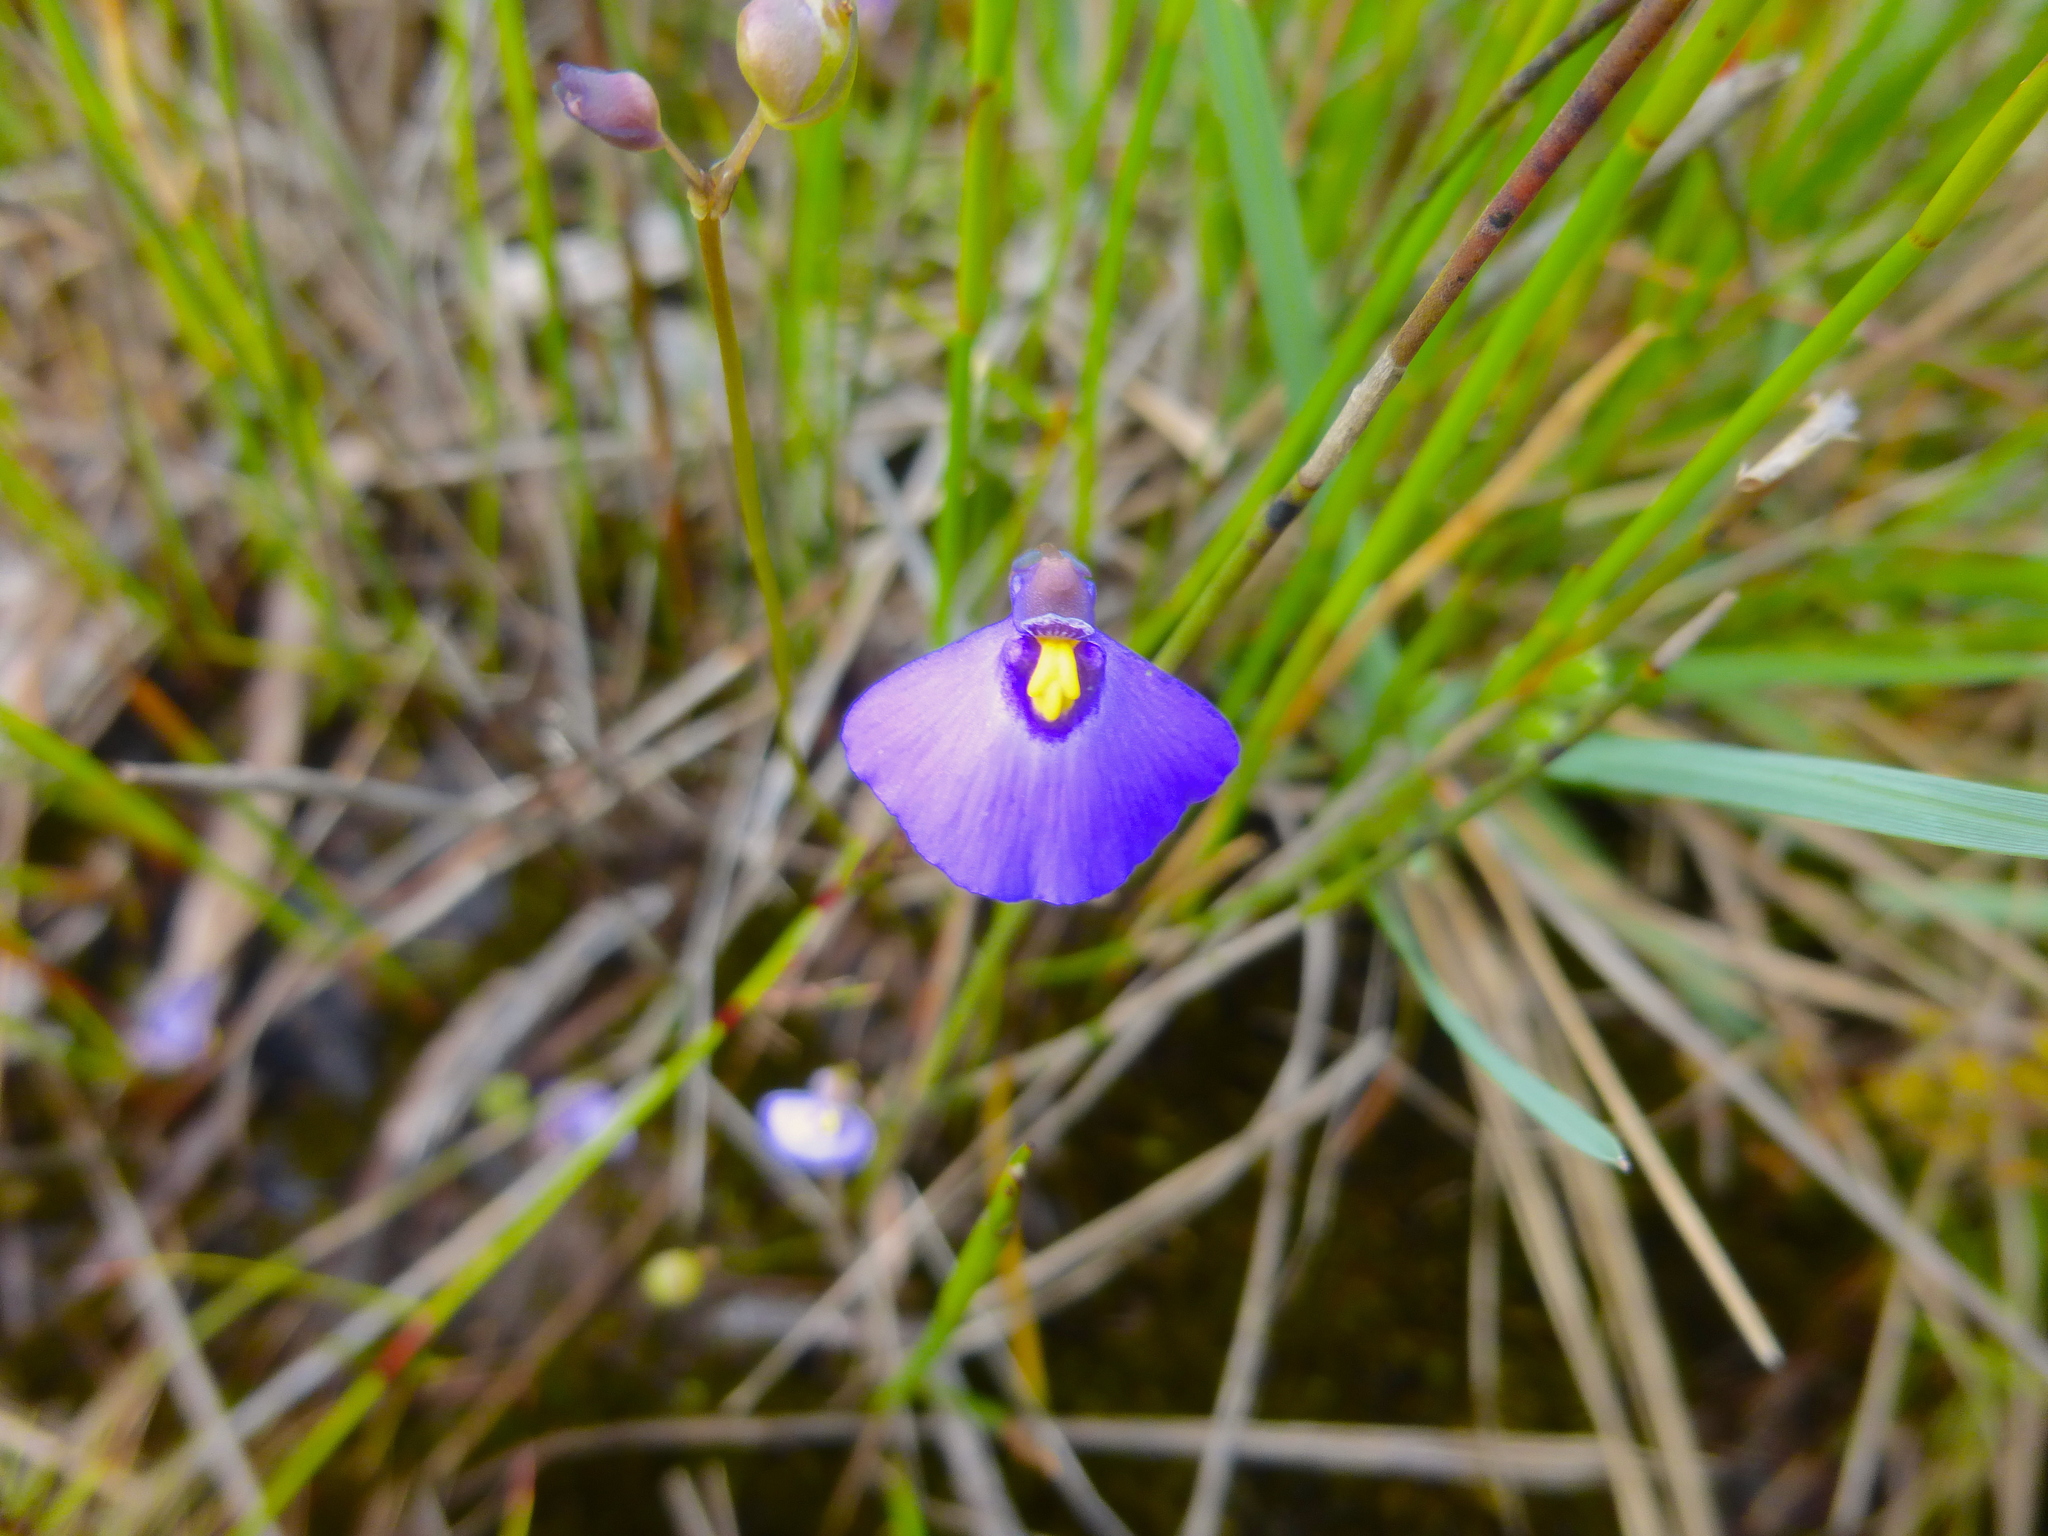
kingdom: Plantae
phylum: Tracheophyta
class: Magnoliopsida
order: Lamiales
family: Lentibulariaceae
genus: Utricularia
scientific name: Utricularia dichotoma
